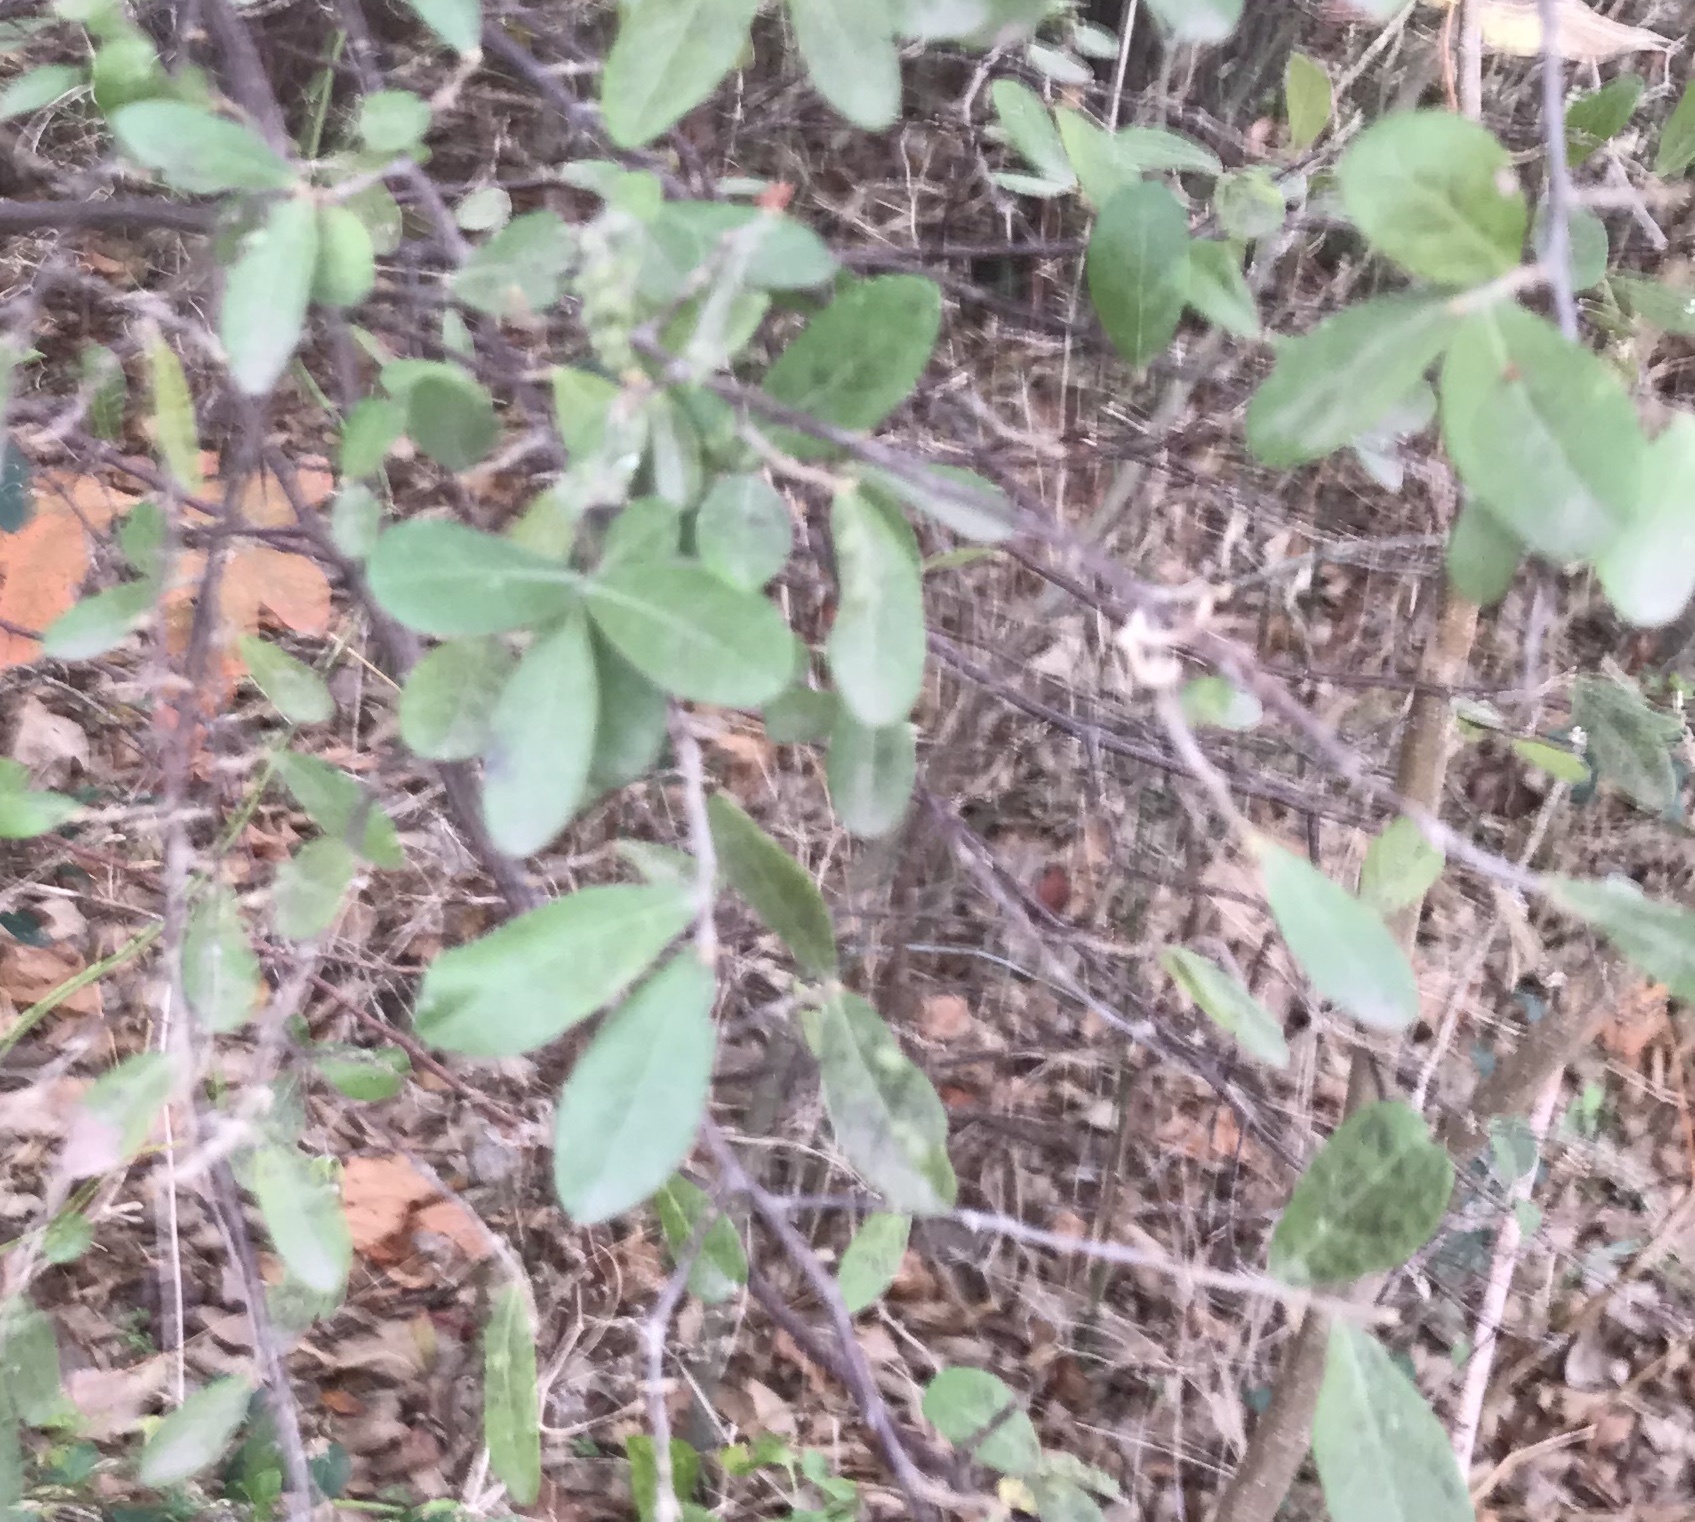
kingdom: Plantae
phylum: Tracheophyta
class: Magnoliopsida
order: Ericales
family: Ebenaceae
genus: Diospyros
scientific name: Diospyros texana
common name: Texas persimmon
